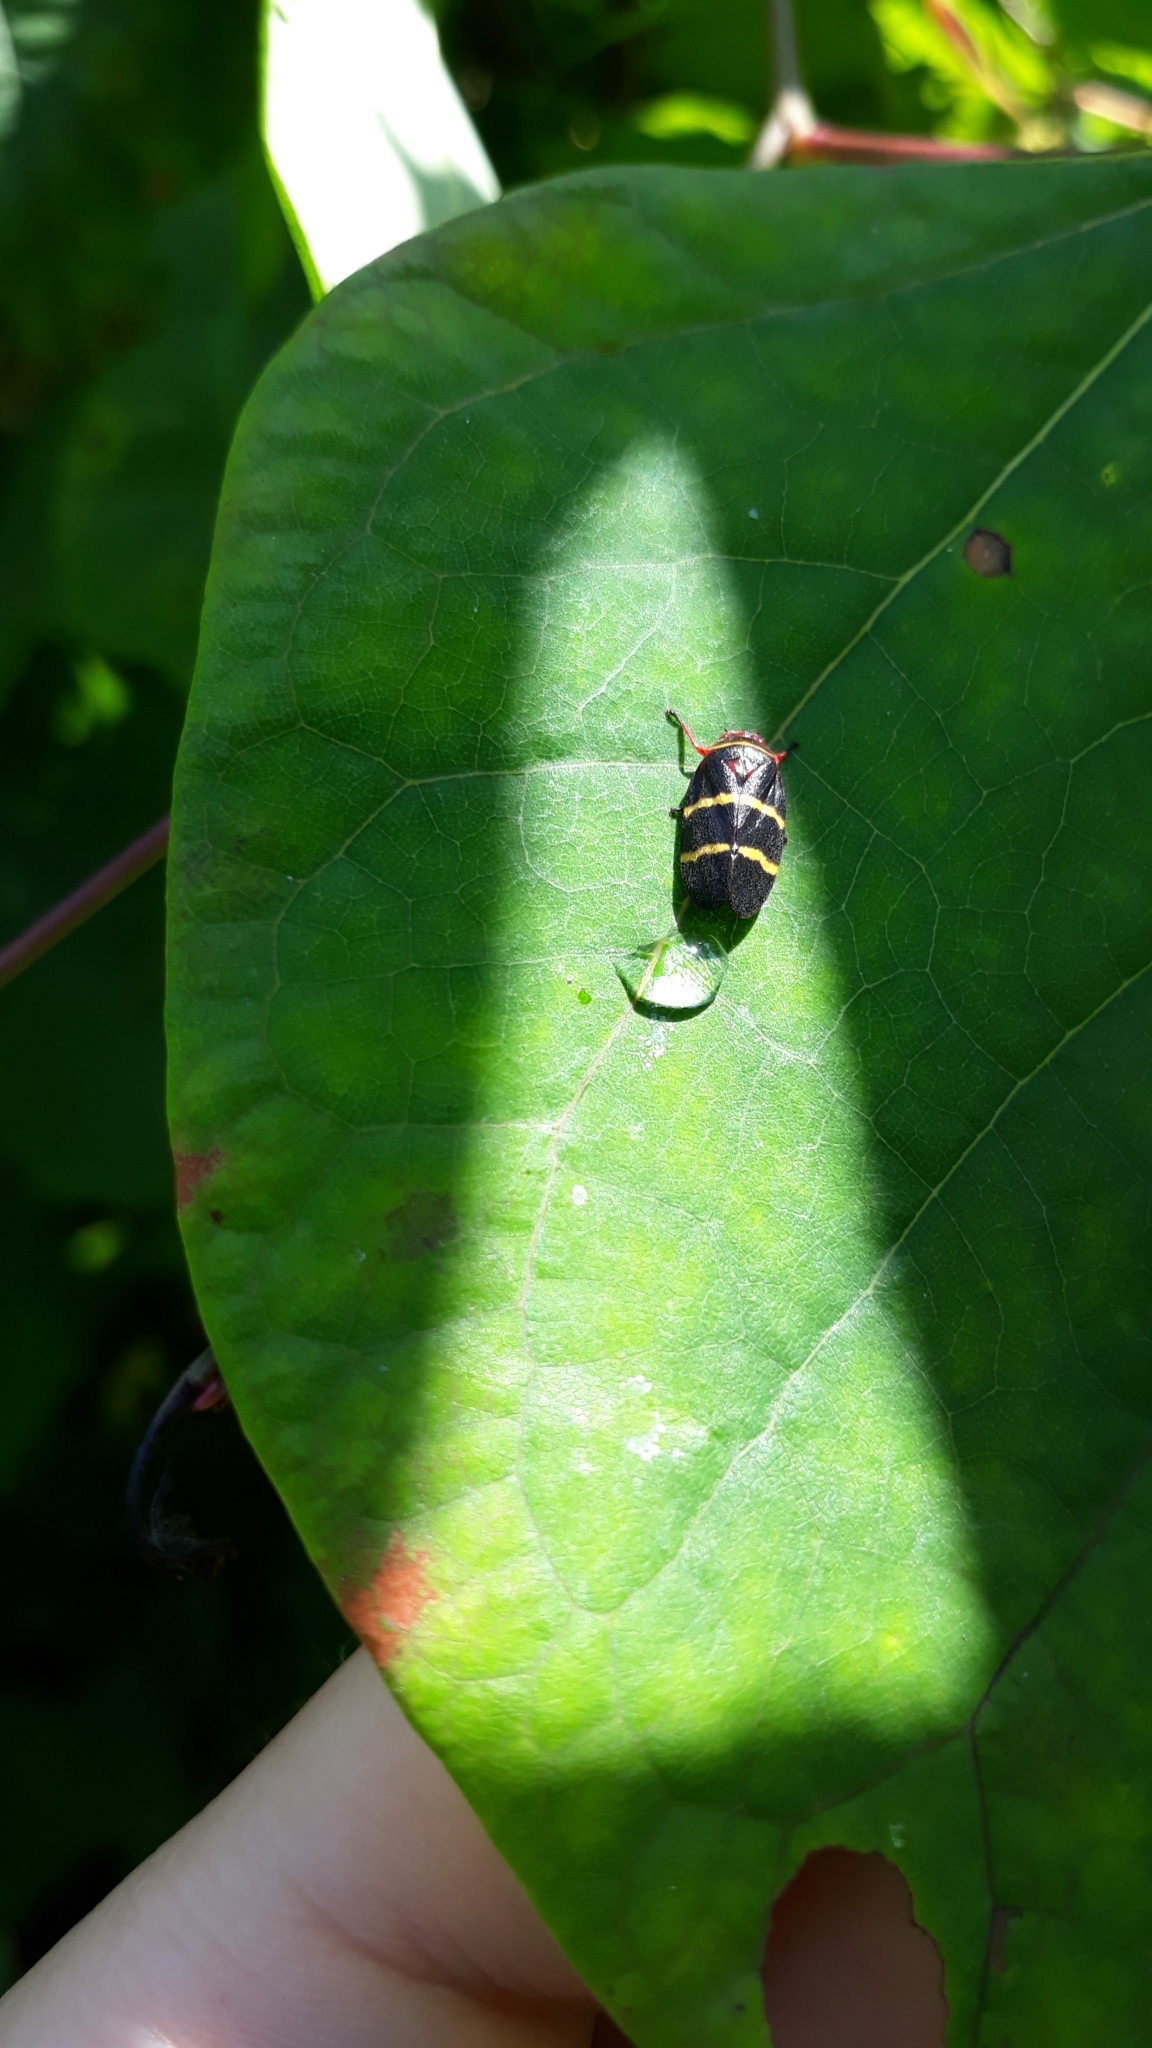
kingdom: Animalia
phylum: Arthropoda
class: Insecta
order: Hemiptera
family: Cercopidae
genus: Prosapia
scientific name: Prosapia bicincta
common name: Twolined spittlebug
